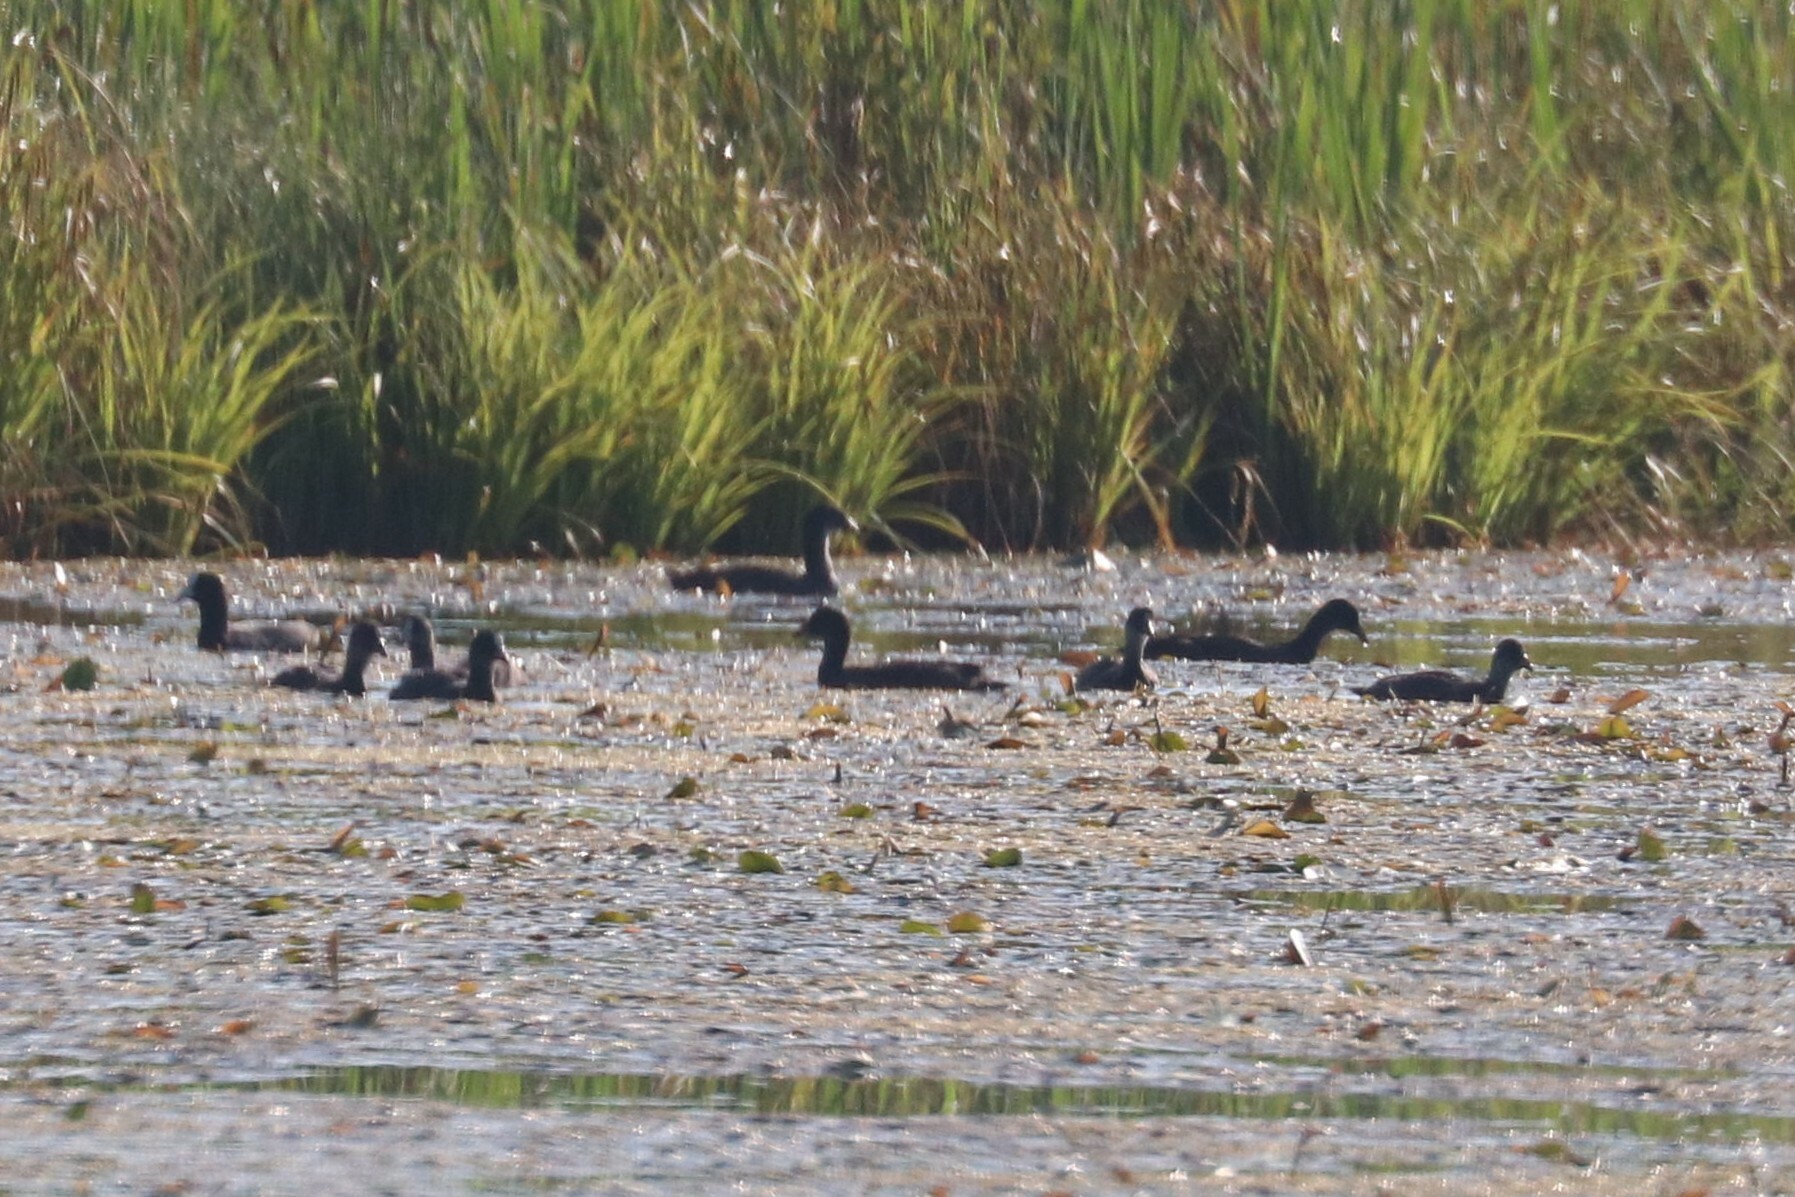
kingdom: Animalia
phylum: Chordata
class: Aves
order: Gruiformes
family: Rallidae
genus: Fulica
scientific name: Fulica atra
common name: Eurasian coot
